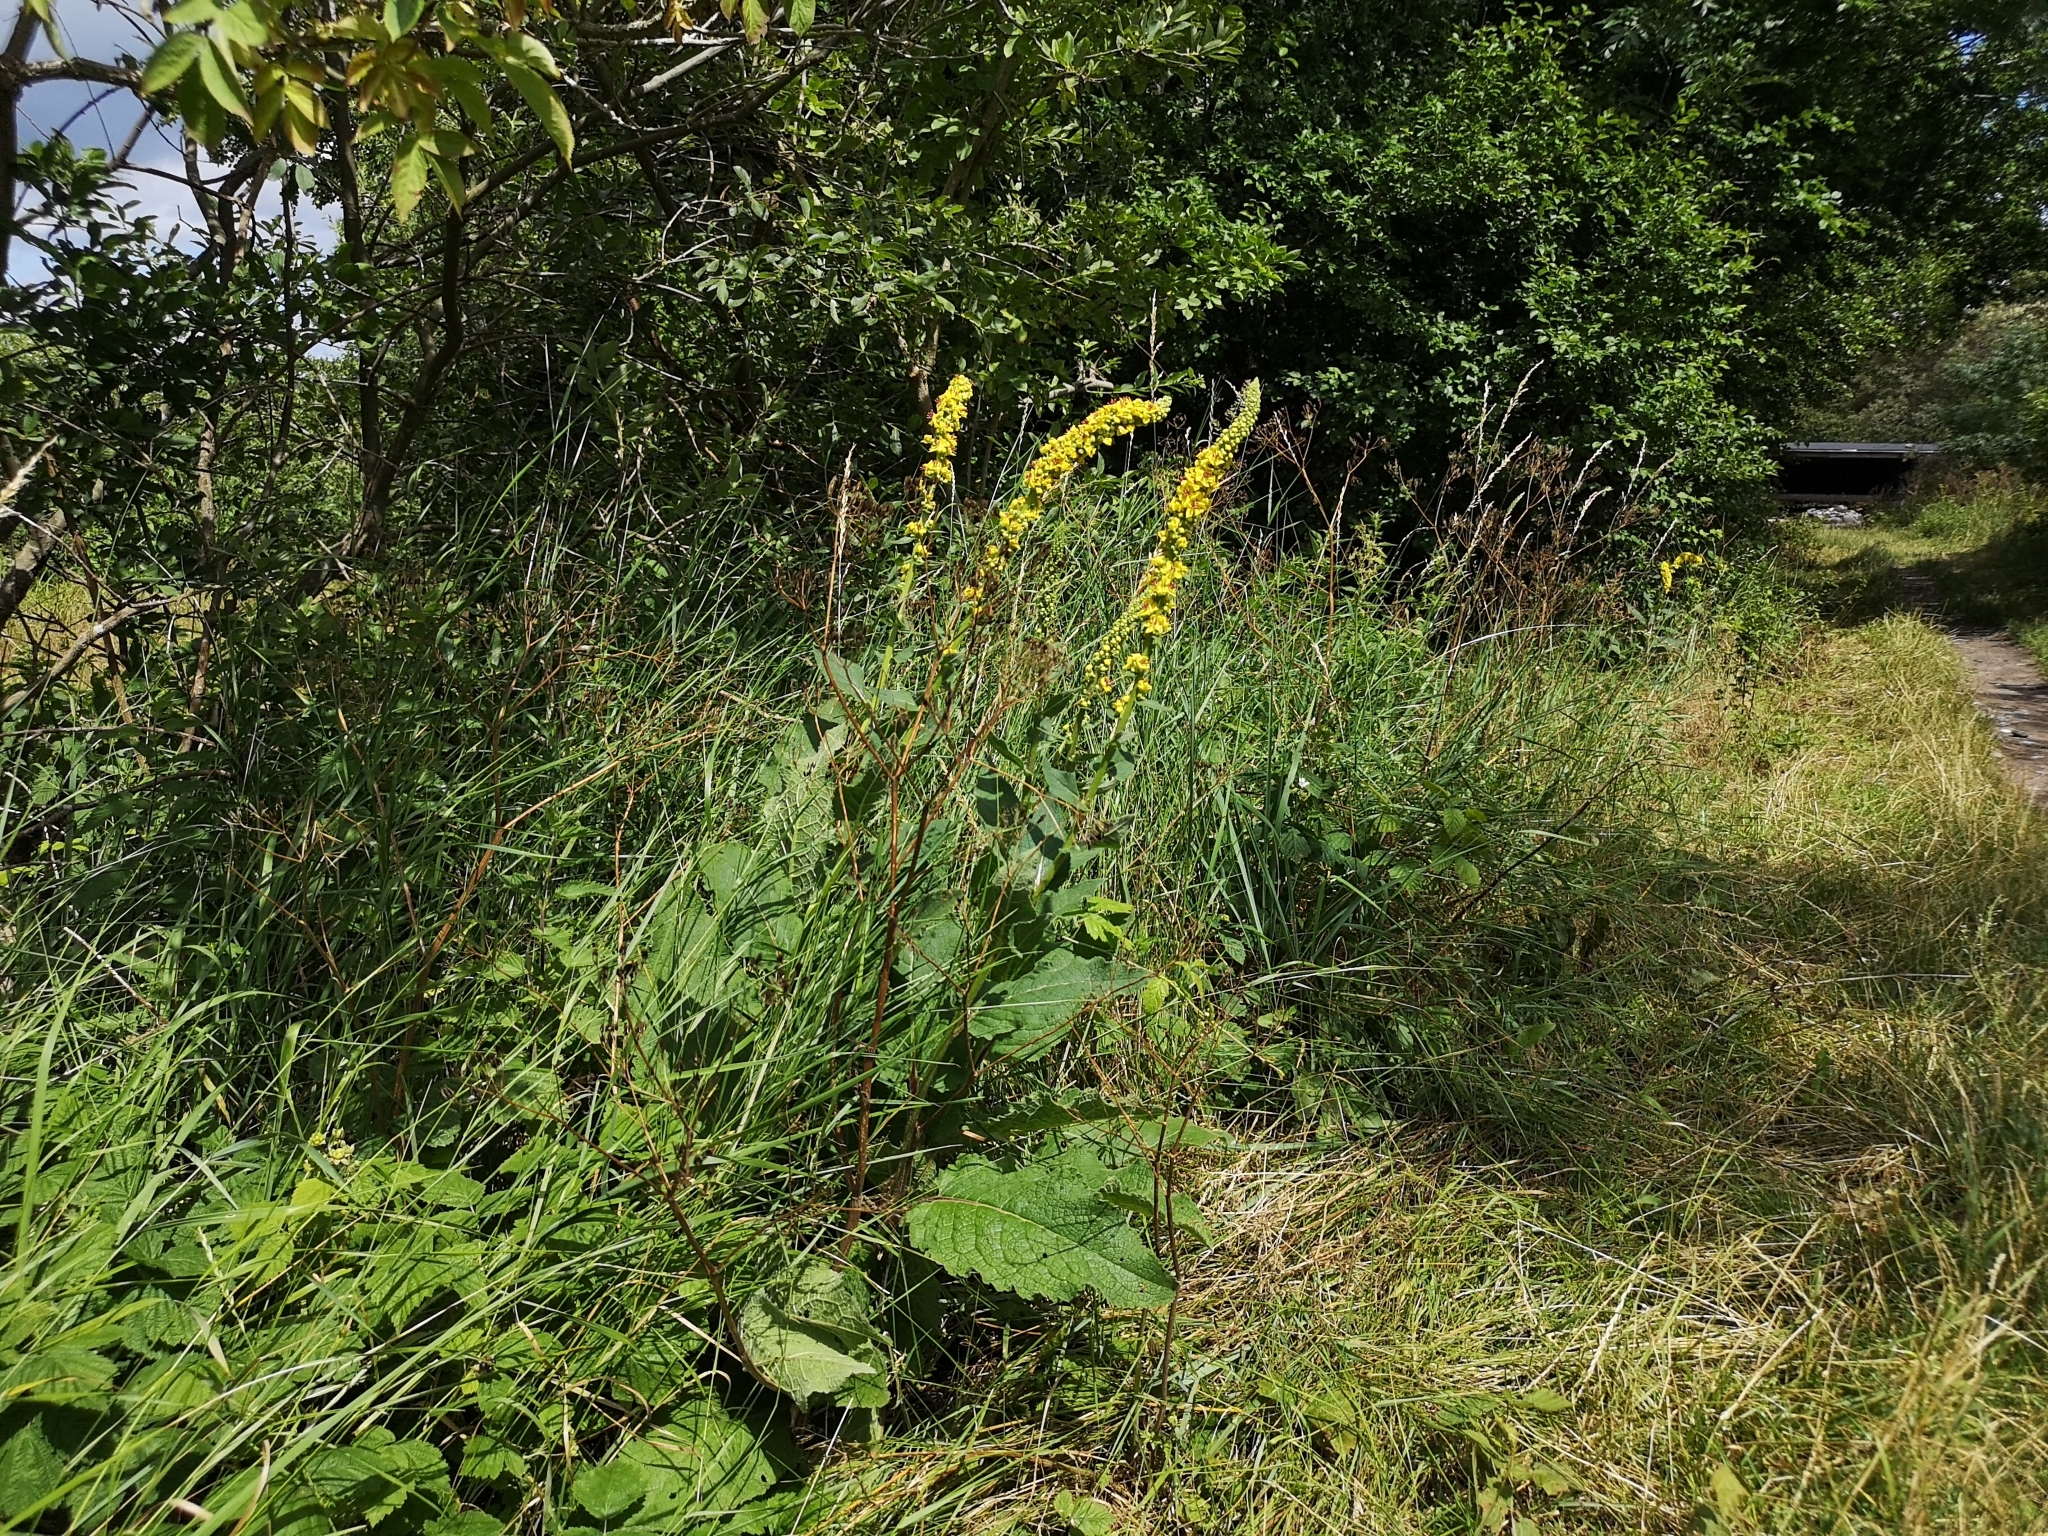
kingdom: Plantae
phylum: Tracheophyta
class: Magnoliopsida
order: Lamiales
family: Scrophulariaceae
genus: Verbascum
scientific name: Verbascum nigrum
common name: Dark mullein
